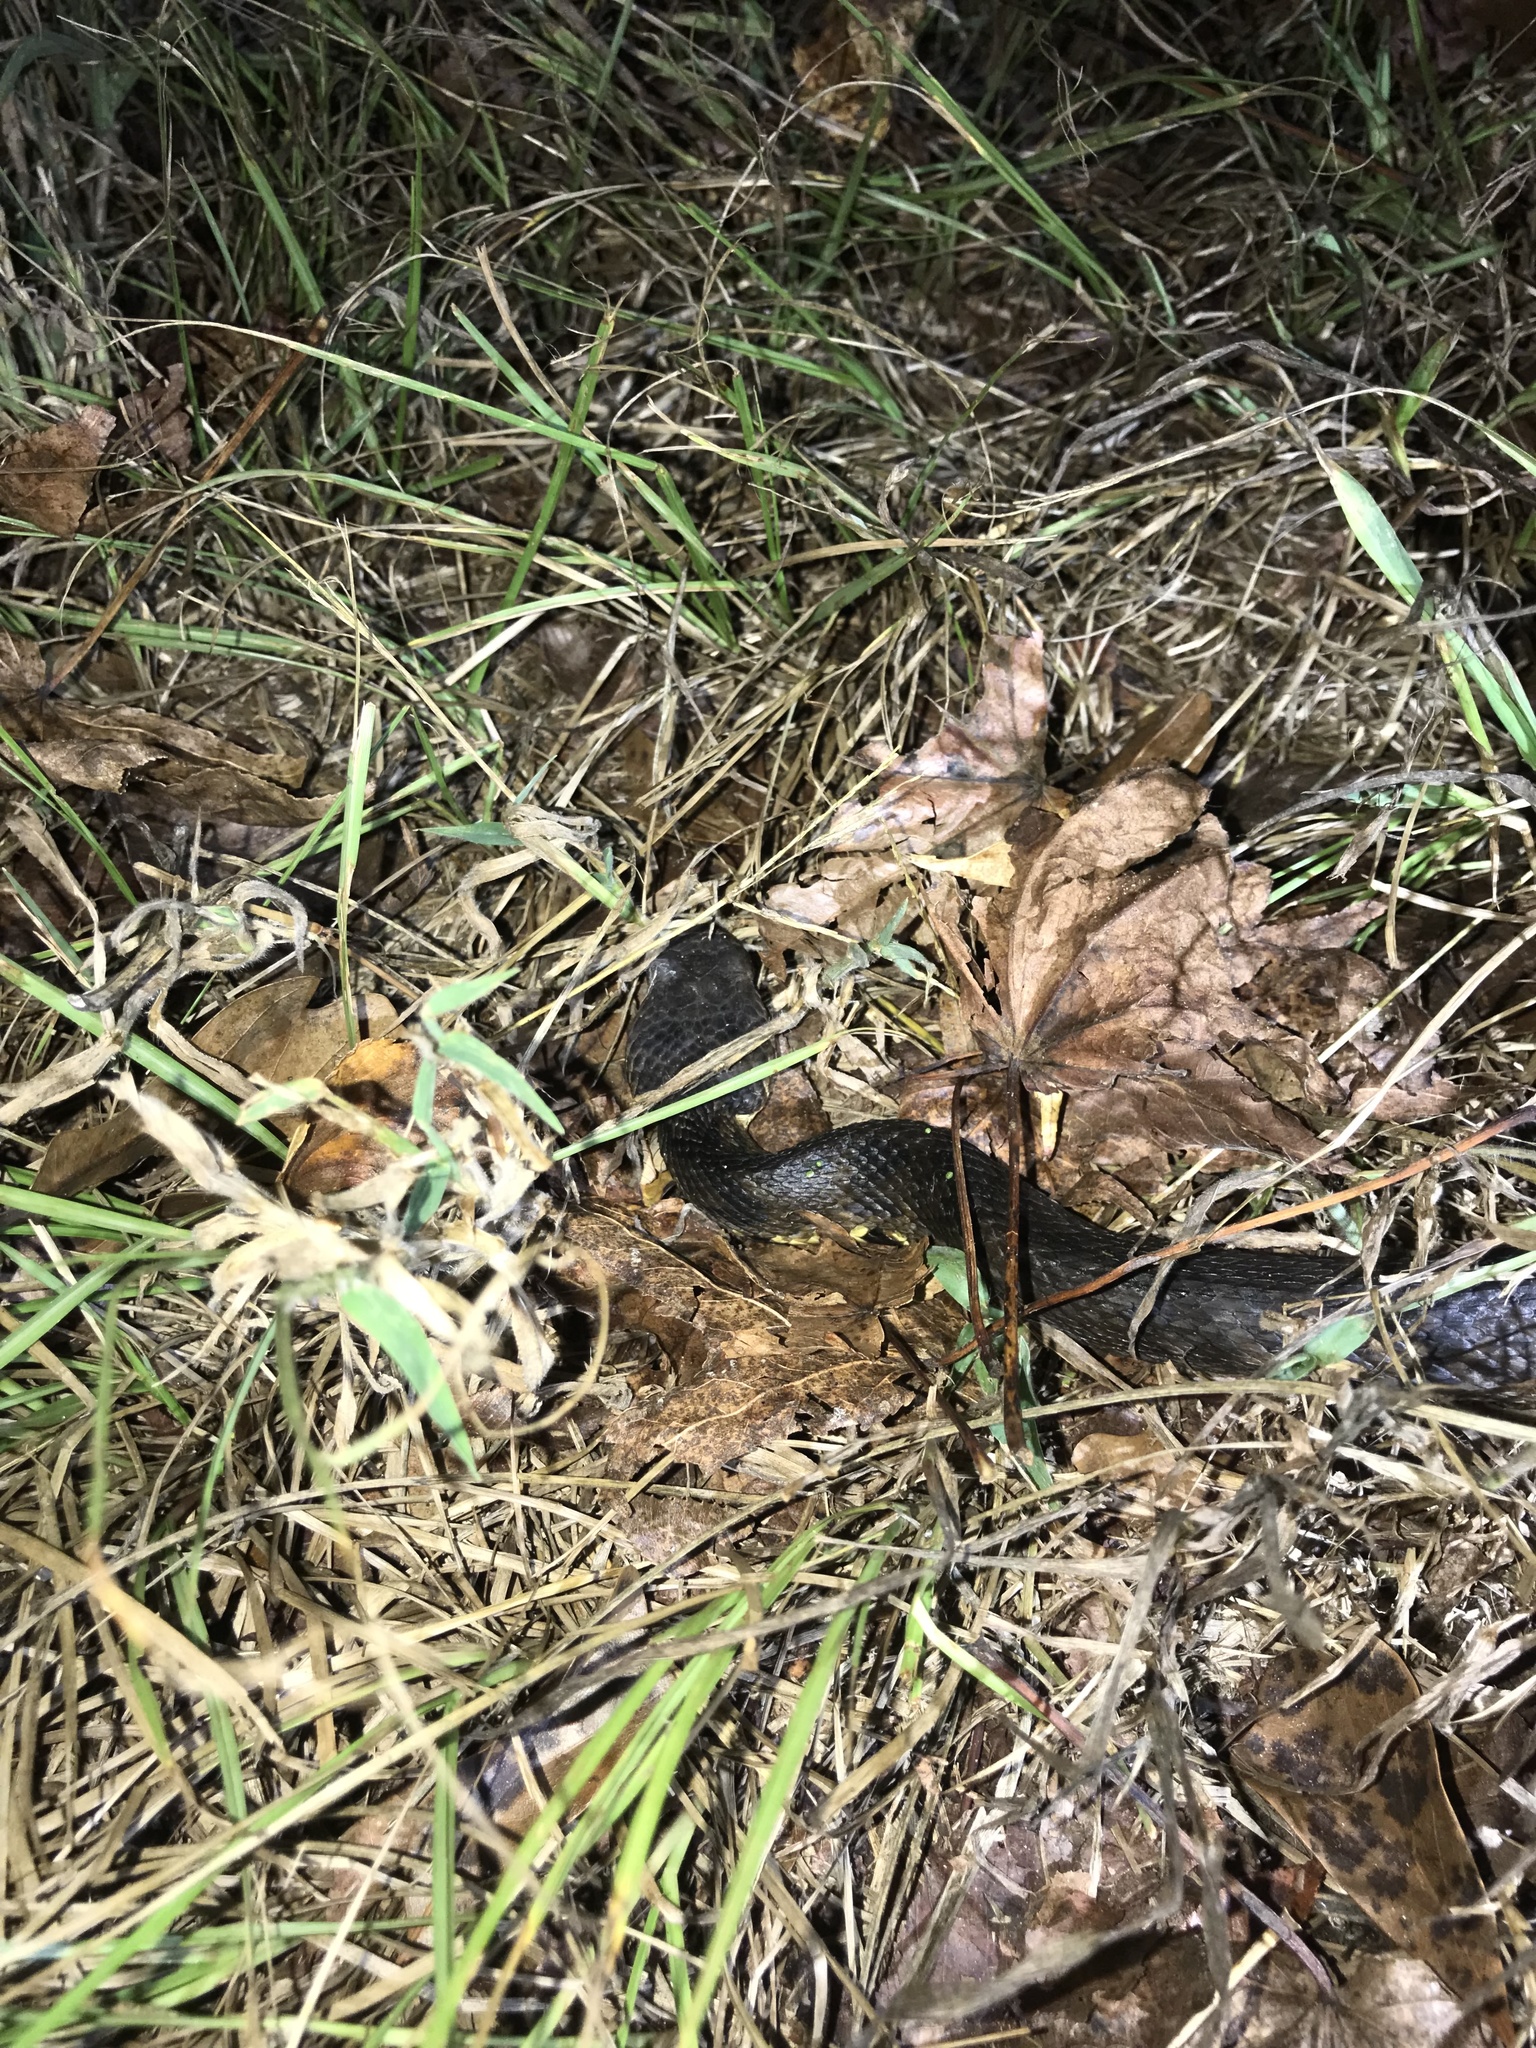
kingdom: Animalia
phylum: Chordata
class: Squamata
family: Viperidae
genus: Agkistrodon
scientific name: Agkistrodon piscivorus
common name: Cottonmouth
